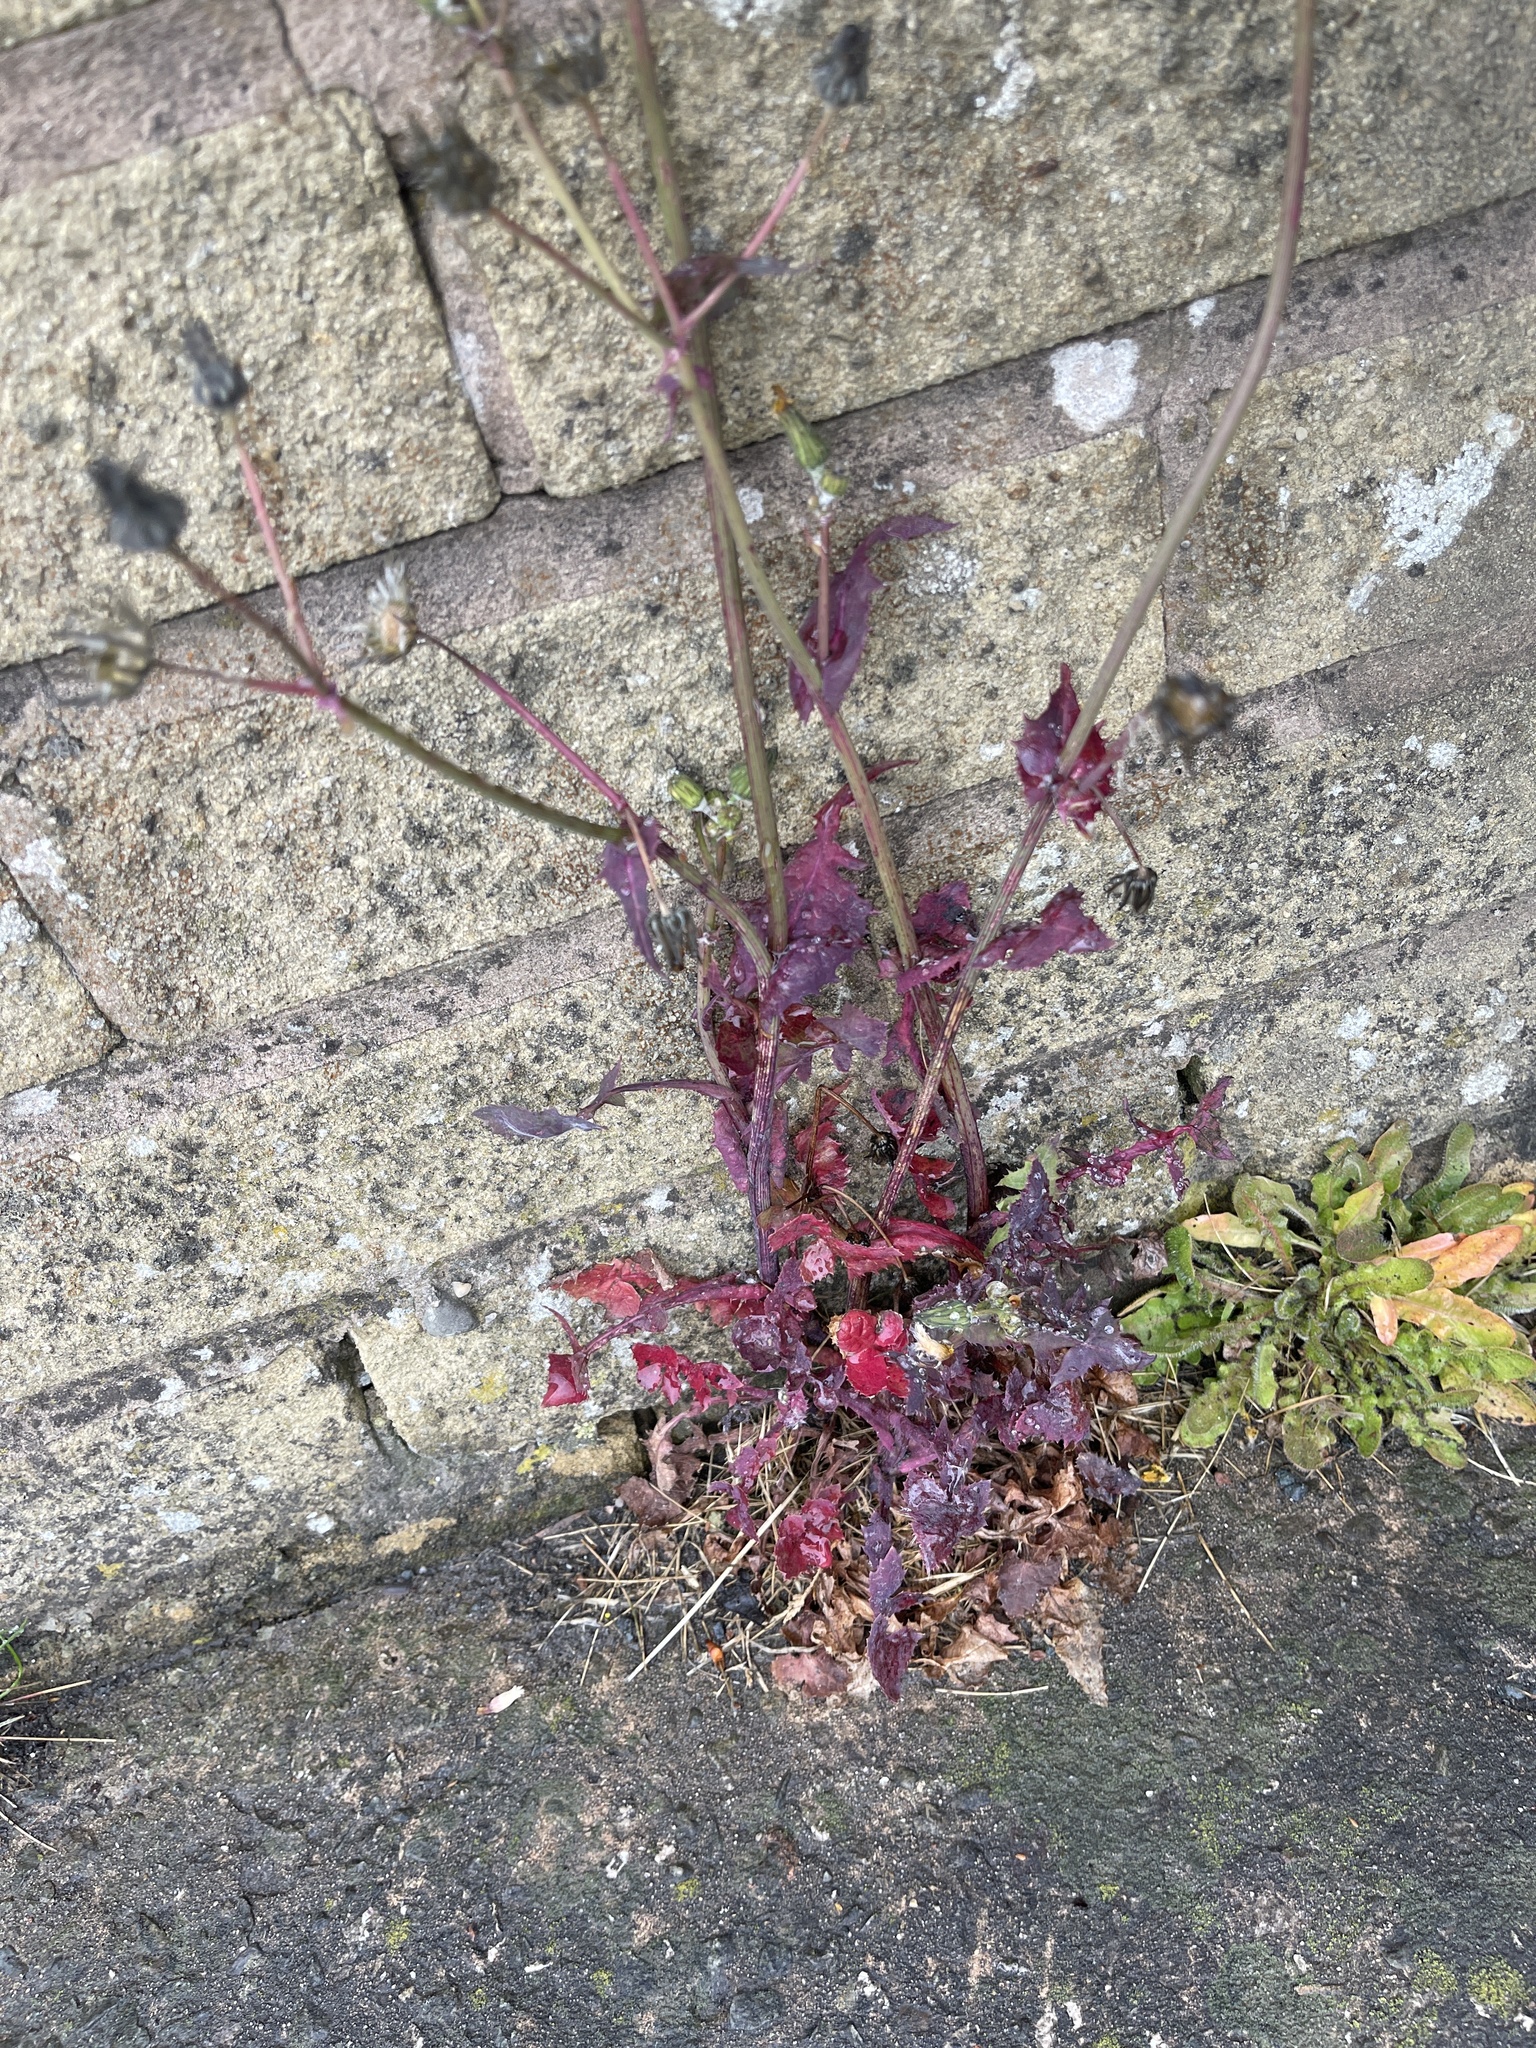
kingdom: Plantae
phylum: Tracheophyta
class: Magnoliopsida
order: Asterales
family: Asteraceae
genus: Sonchus
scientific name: Sonchus oleraceus
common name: Common sowthistle
